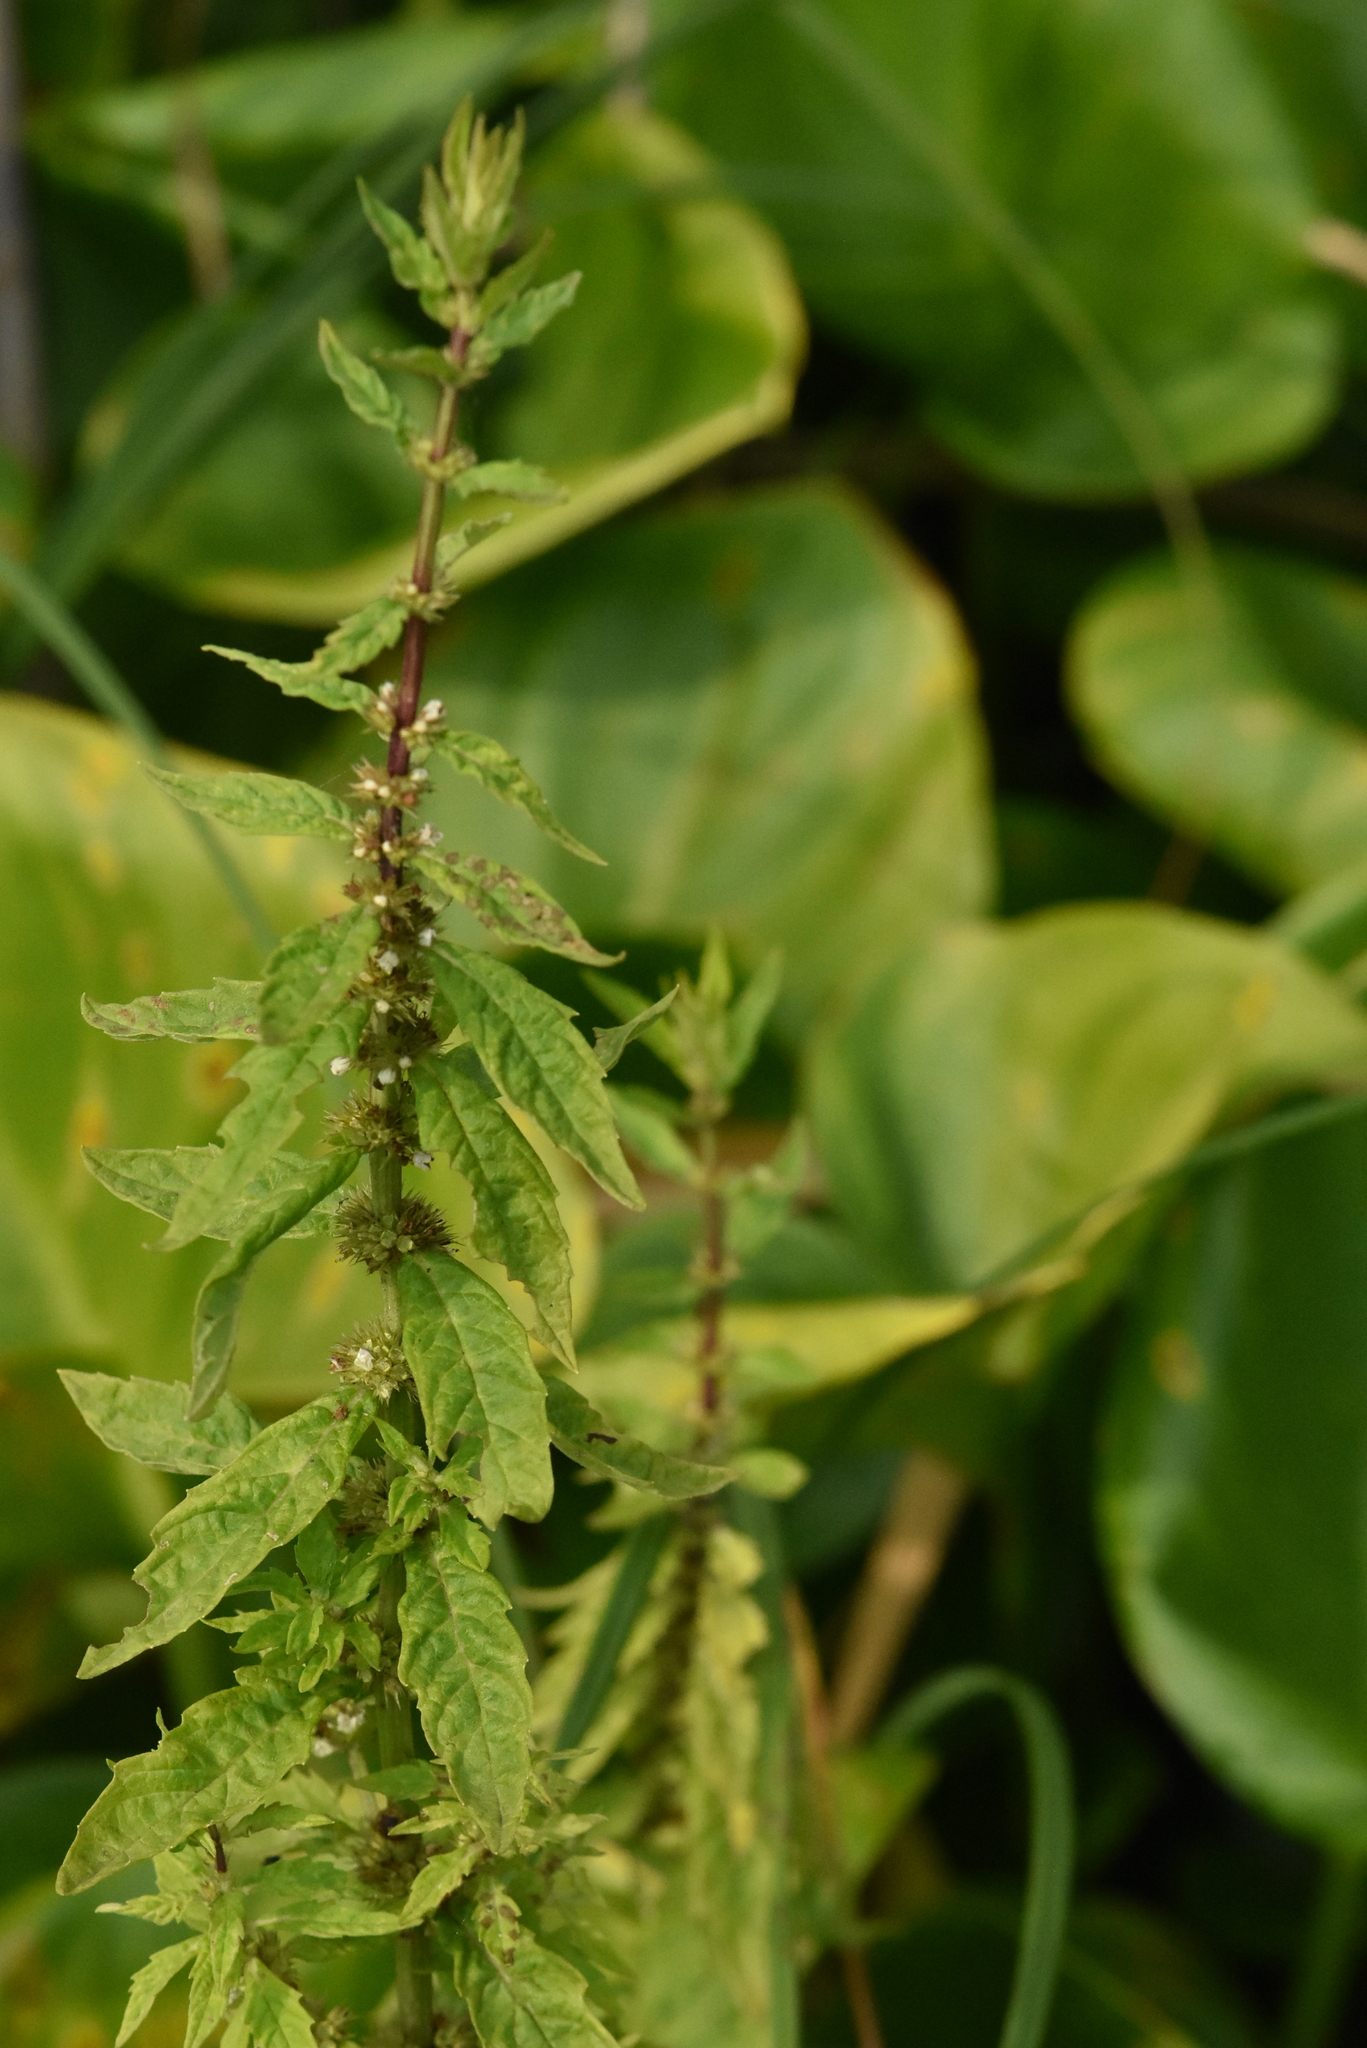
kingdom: Plantae
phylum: Tracheophyta
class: Magnoliopsida
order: Lamiales
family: Lamiaceae
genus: Lycopus
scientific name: Lycopus europaeus
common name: European bugleweed
